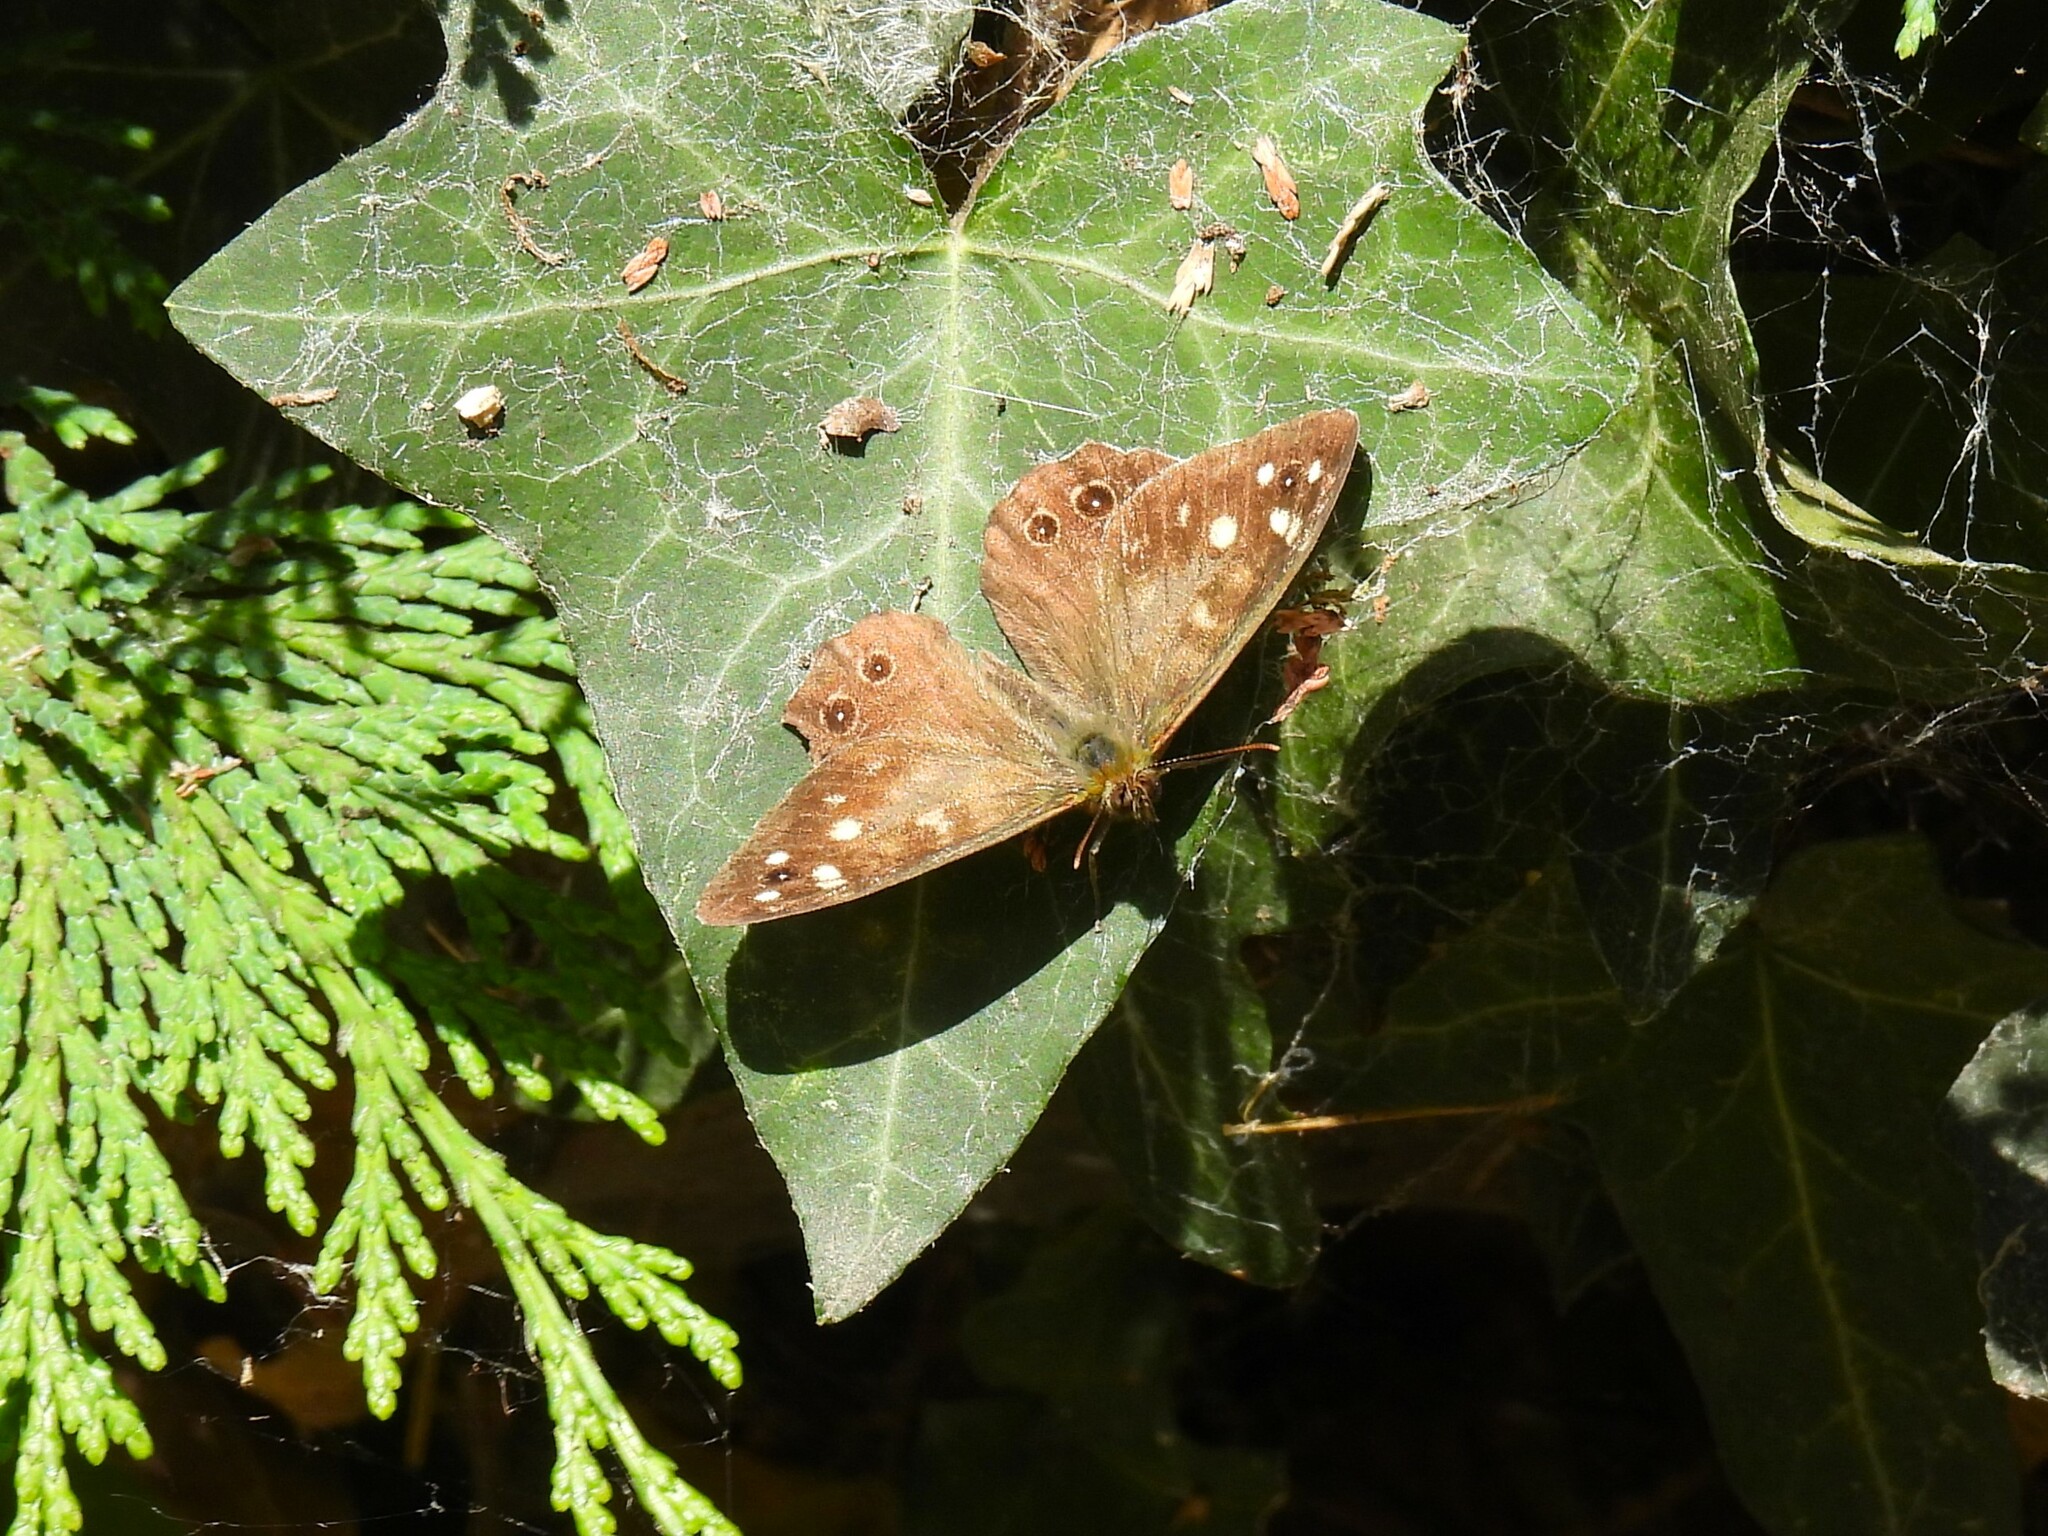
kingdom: Animalia
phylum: Arthropoda
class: Insecta
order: Lepidoptera
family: Nymphalidae
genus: Pararge
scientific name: Pararge aegeria
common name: Speckled wood
